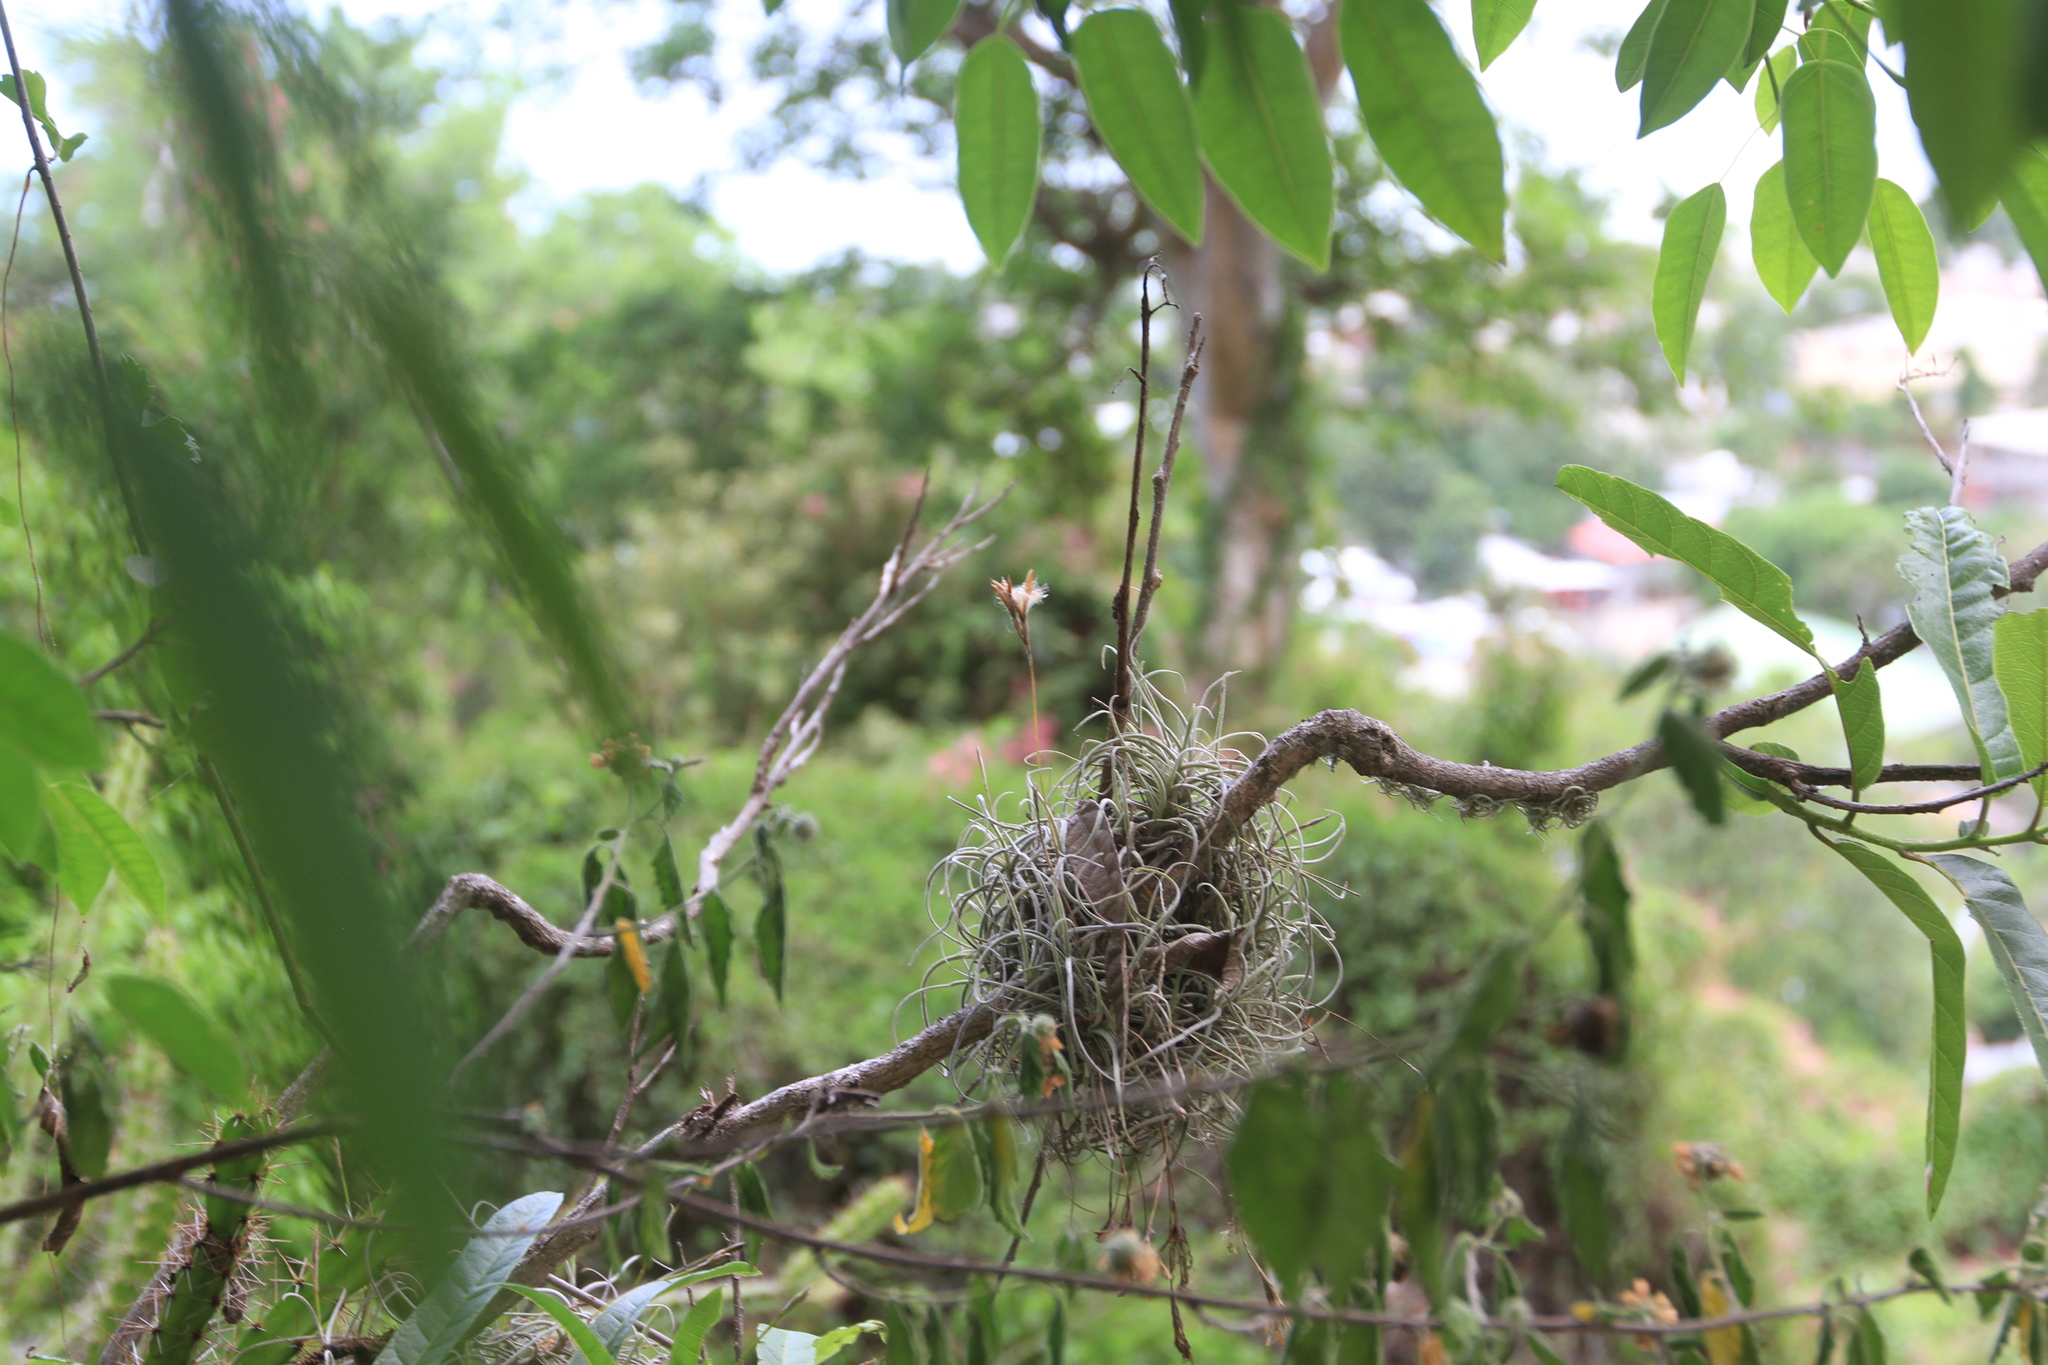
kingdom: Plantae
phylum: Tracheophyta
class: Liliopsida
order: Poales
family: Bromeliaceae
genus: Tillandsia
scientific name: Tillandsia recurvata
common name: Small ballmoss
